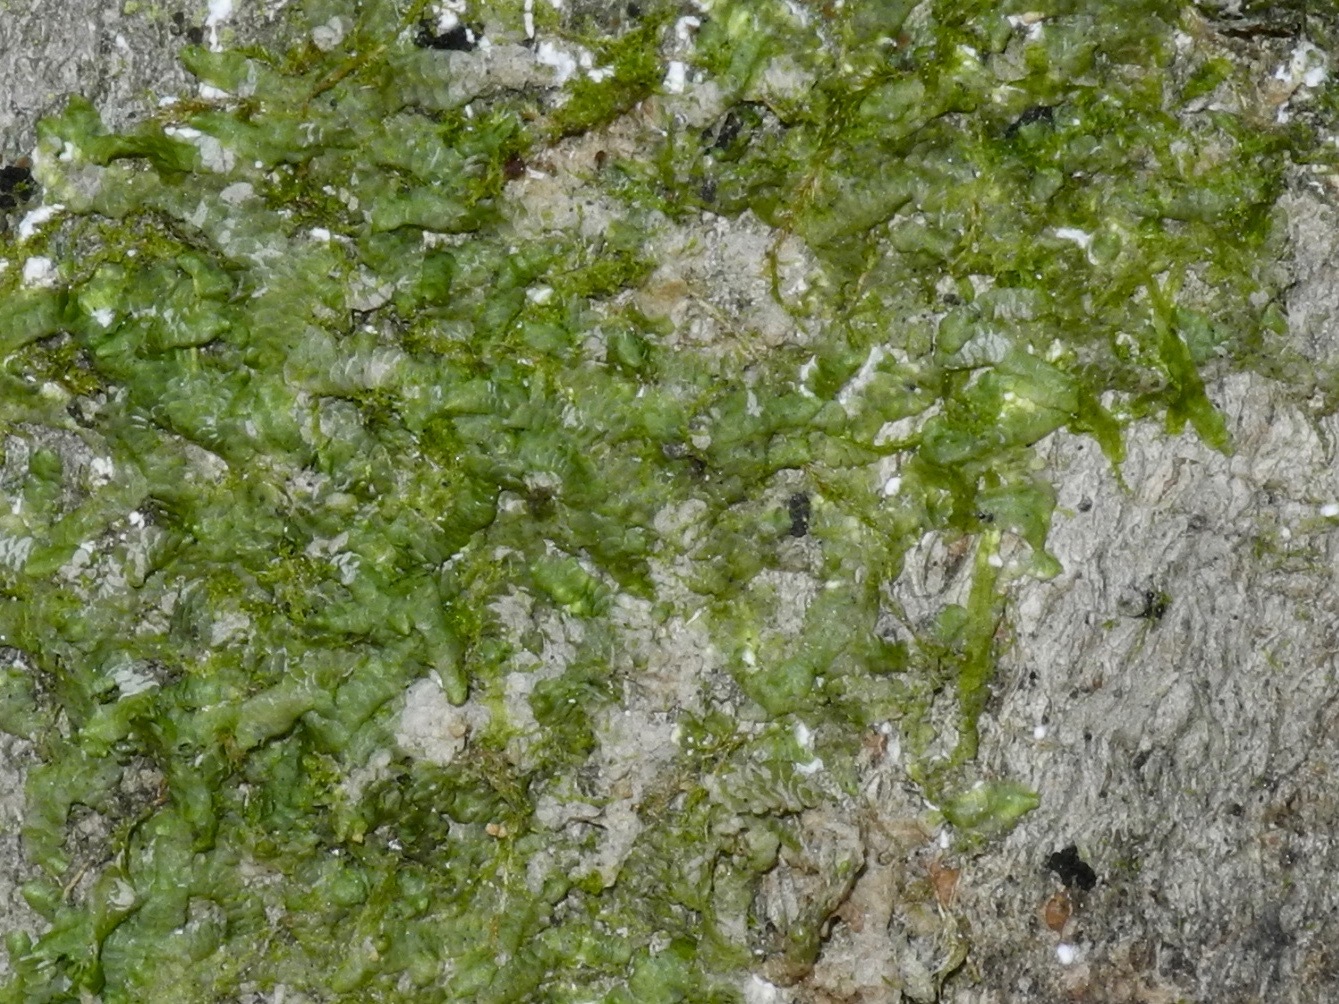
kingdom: Plantae
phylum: Marchantiophyta
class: Jungermanniopsida
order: Porellales
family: Radulaceae
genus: Radula
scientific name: Radula complanata
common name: Flat-leaved scalewort
